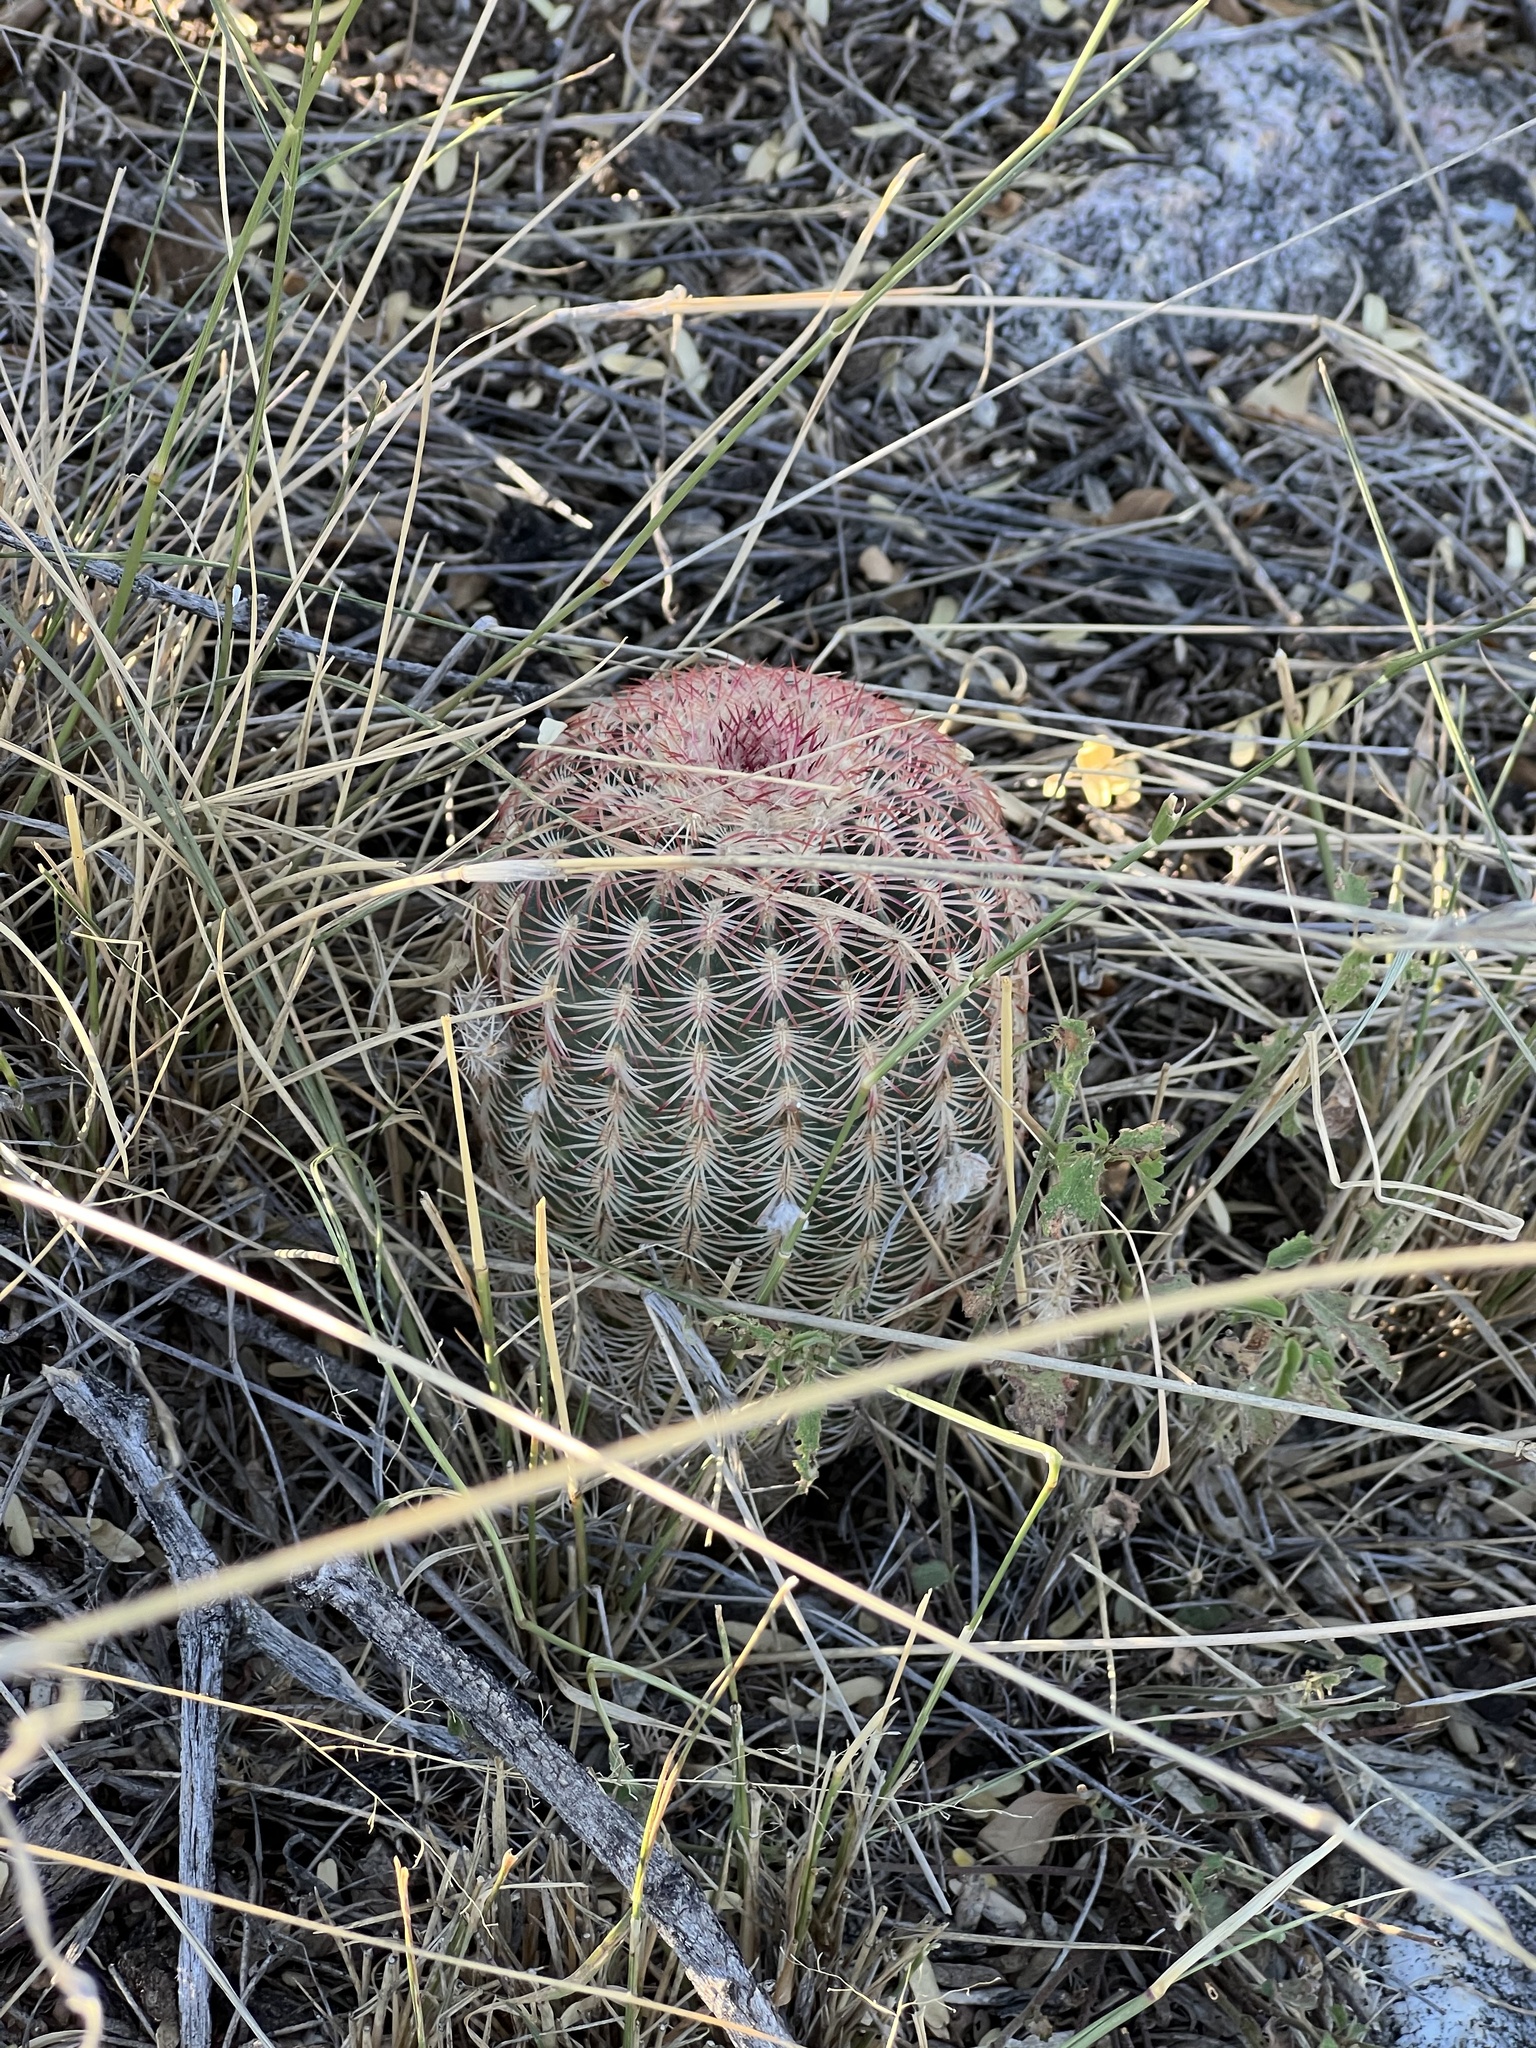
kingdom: Plantae
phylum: Tracheophyta
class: Magnoliopsida
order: Caryophyllales
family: Cactaceae
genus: Echinocereus
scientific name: Echinocereus rigidissimus
